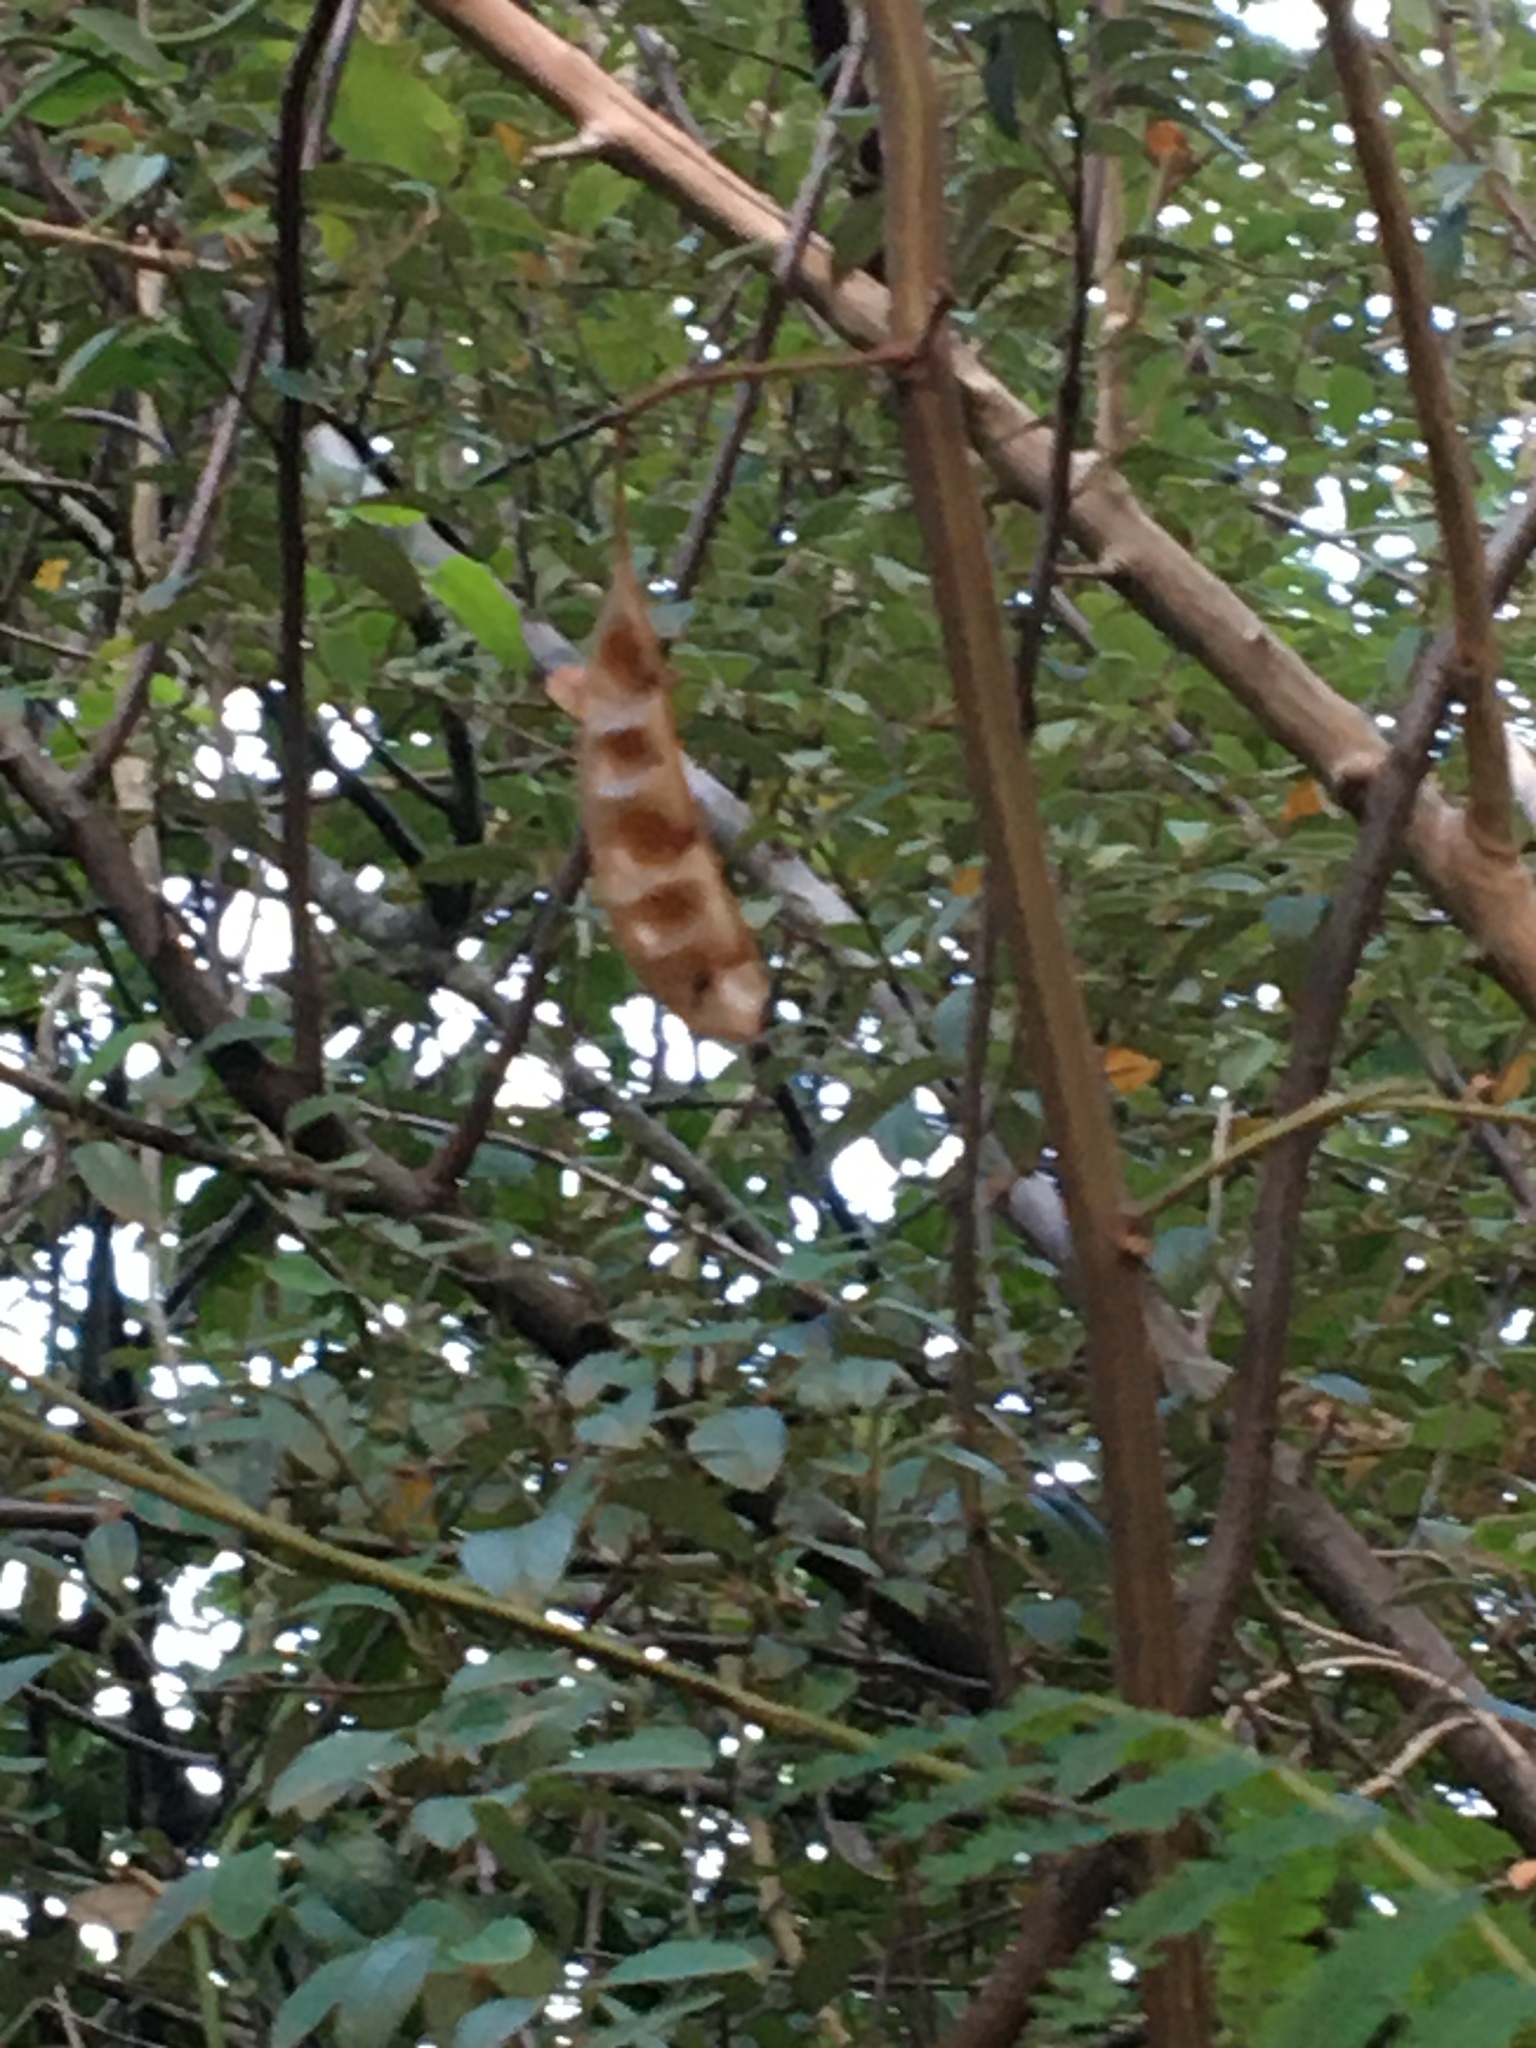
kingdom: Plantae
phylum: Tracheophyta
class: Magnoliopsida
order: Fabales
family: Fabaceae
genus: Paraserianthes
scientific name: Paraserianthes lophantha
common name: Plume albizia
